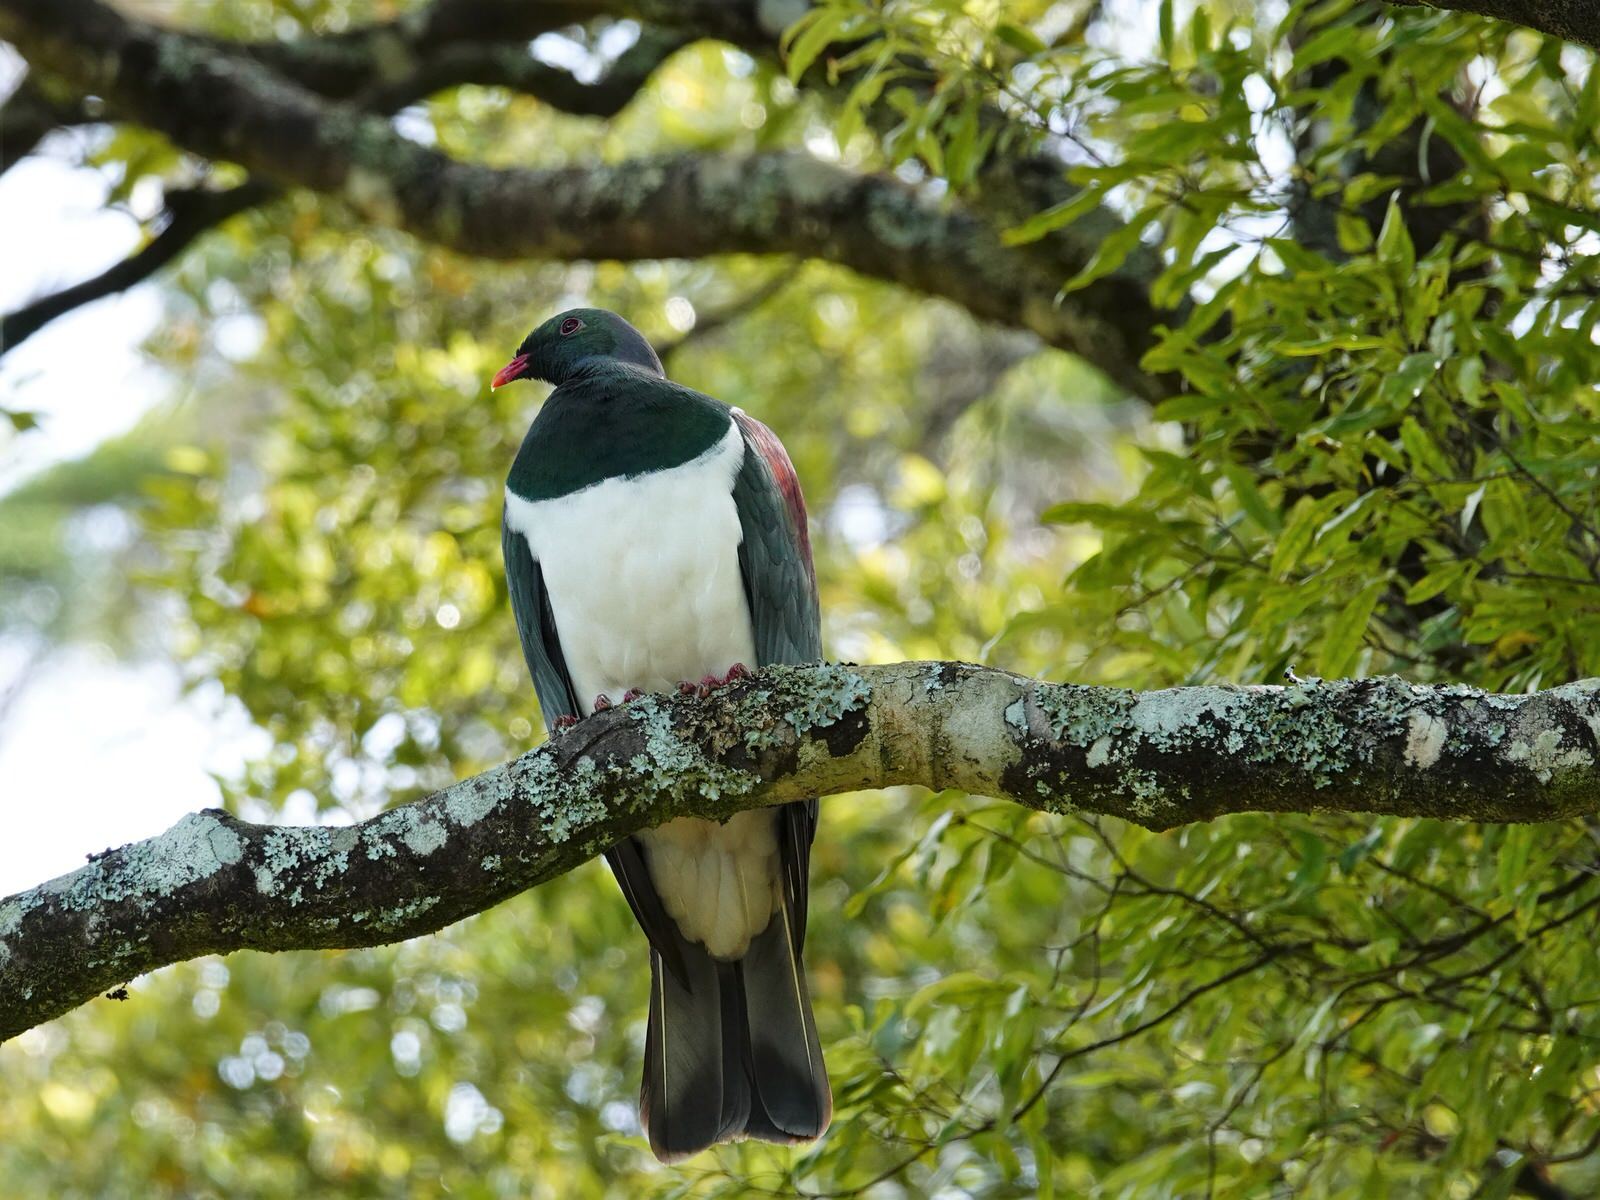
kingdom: Animalia
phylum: Chordata
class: Aves
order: Columbiformes
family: Columbidae
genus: Hemiphaga
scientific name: Hemiphaga novaeseelandiae
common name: New zealand pigeon
